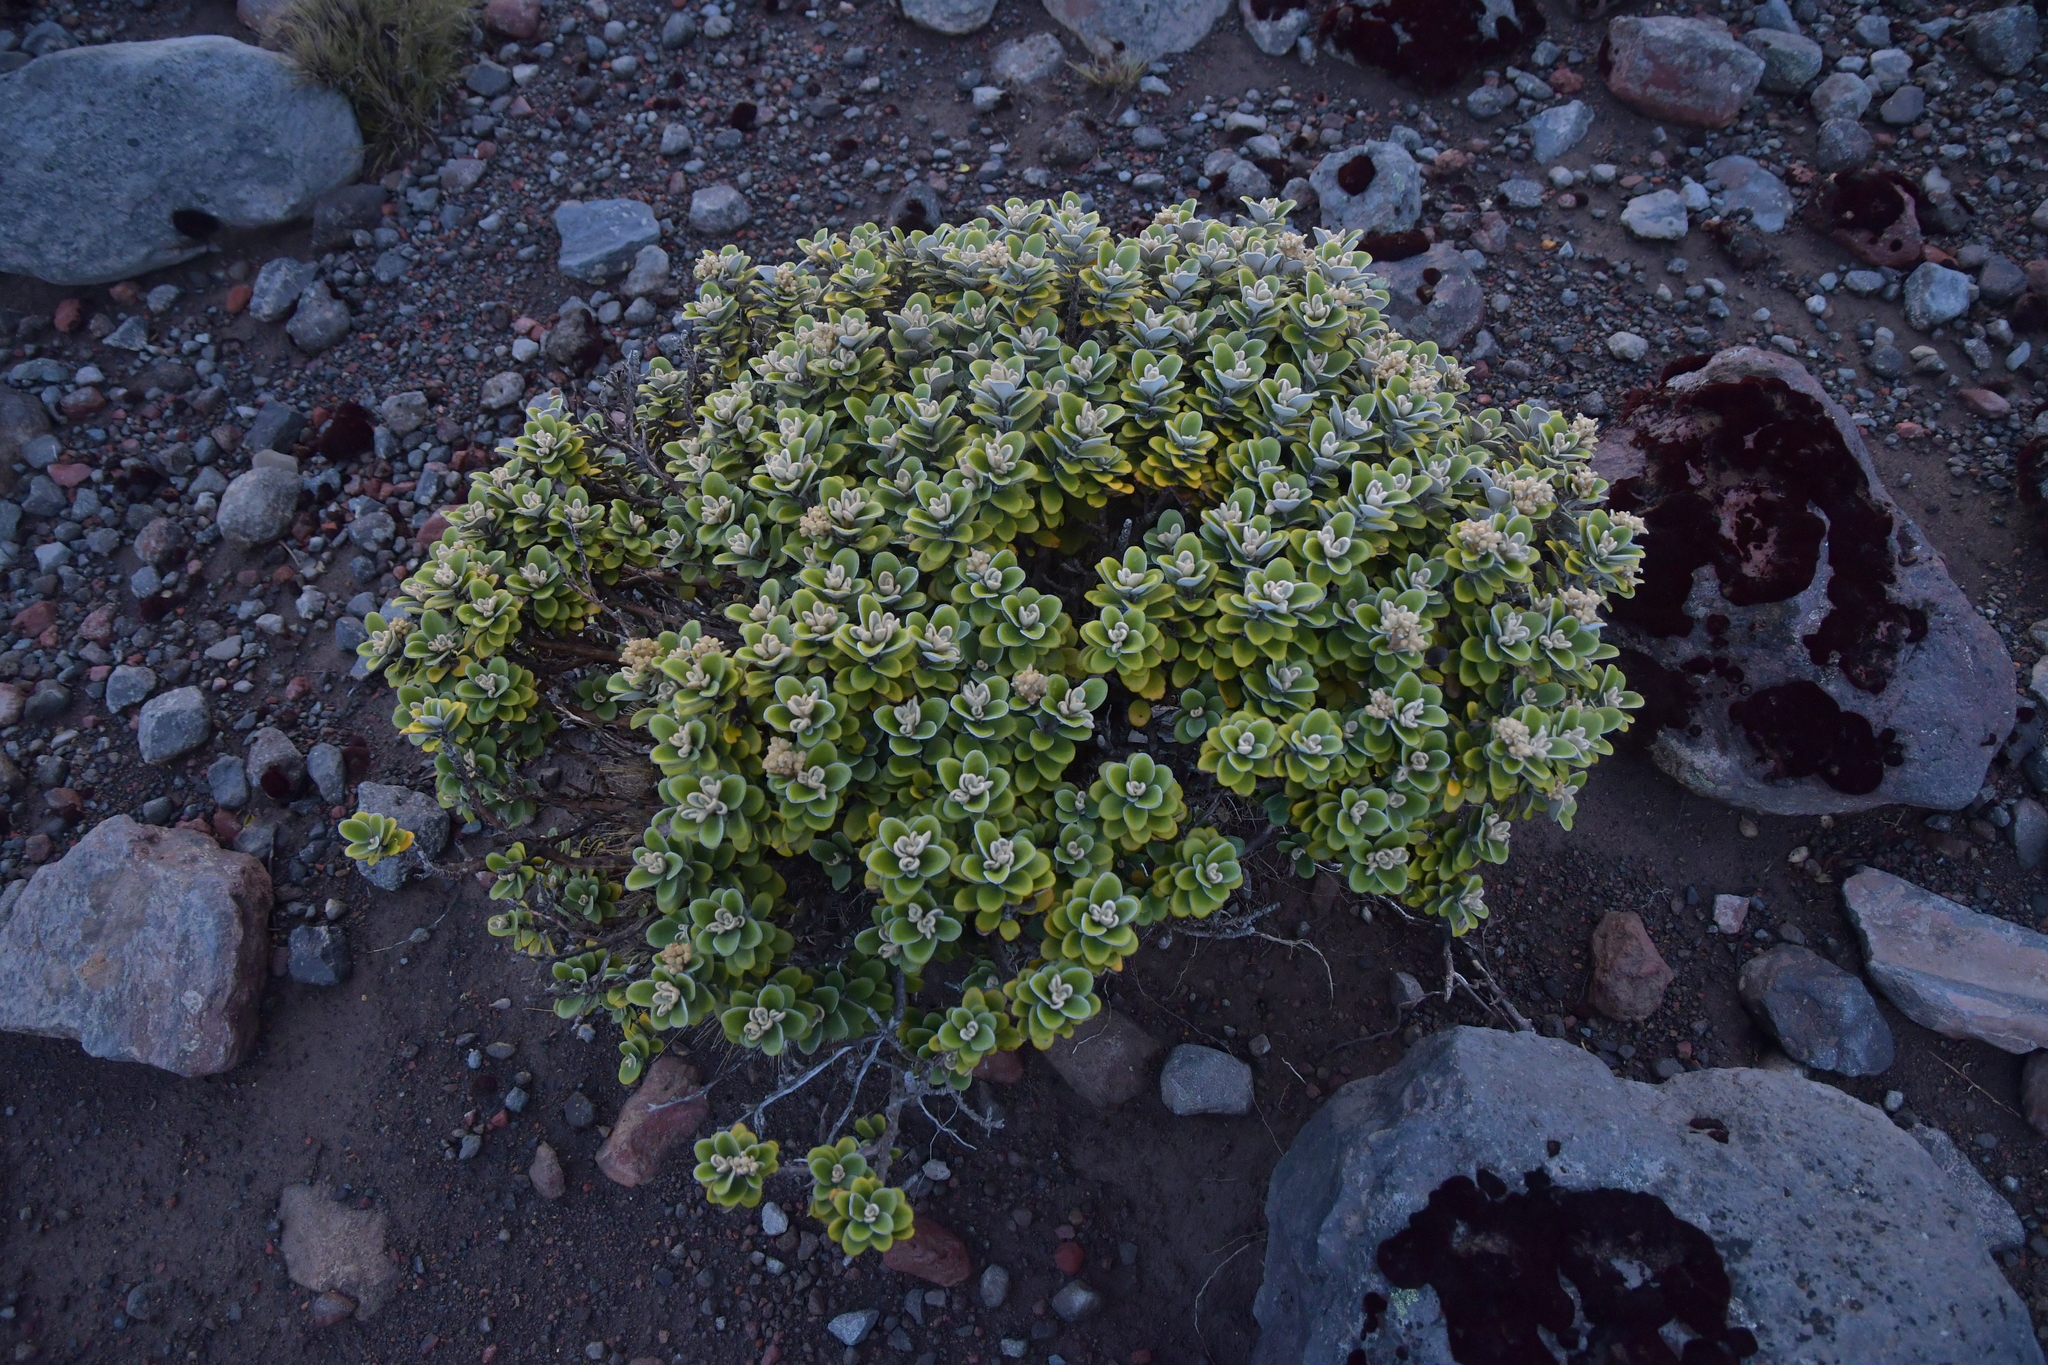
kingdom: Plantae
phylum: Tracheophyta
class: Magnoliopsida
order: Asterales
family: Asteraceae
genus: Brachyglottis
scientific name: Brachyglottis bidwillii
